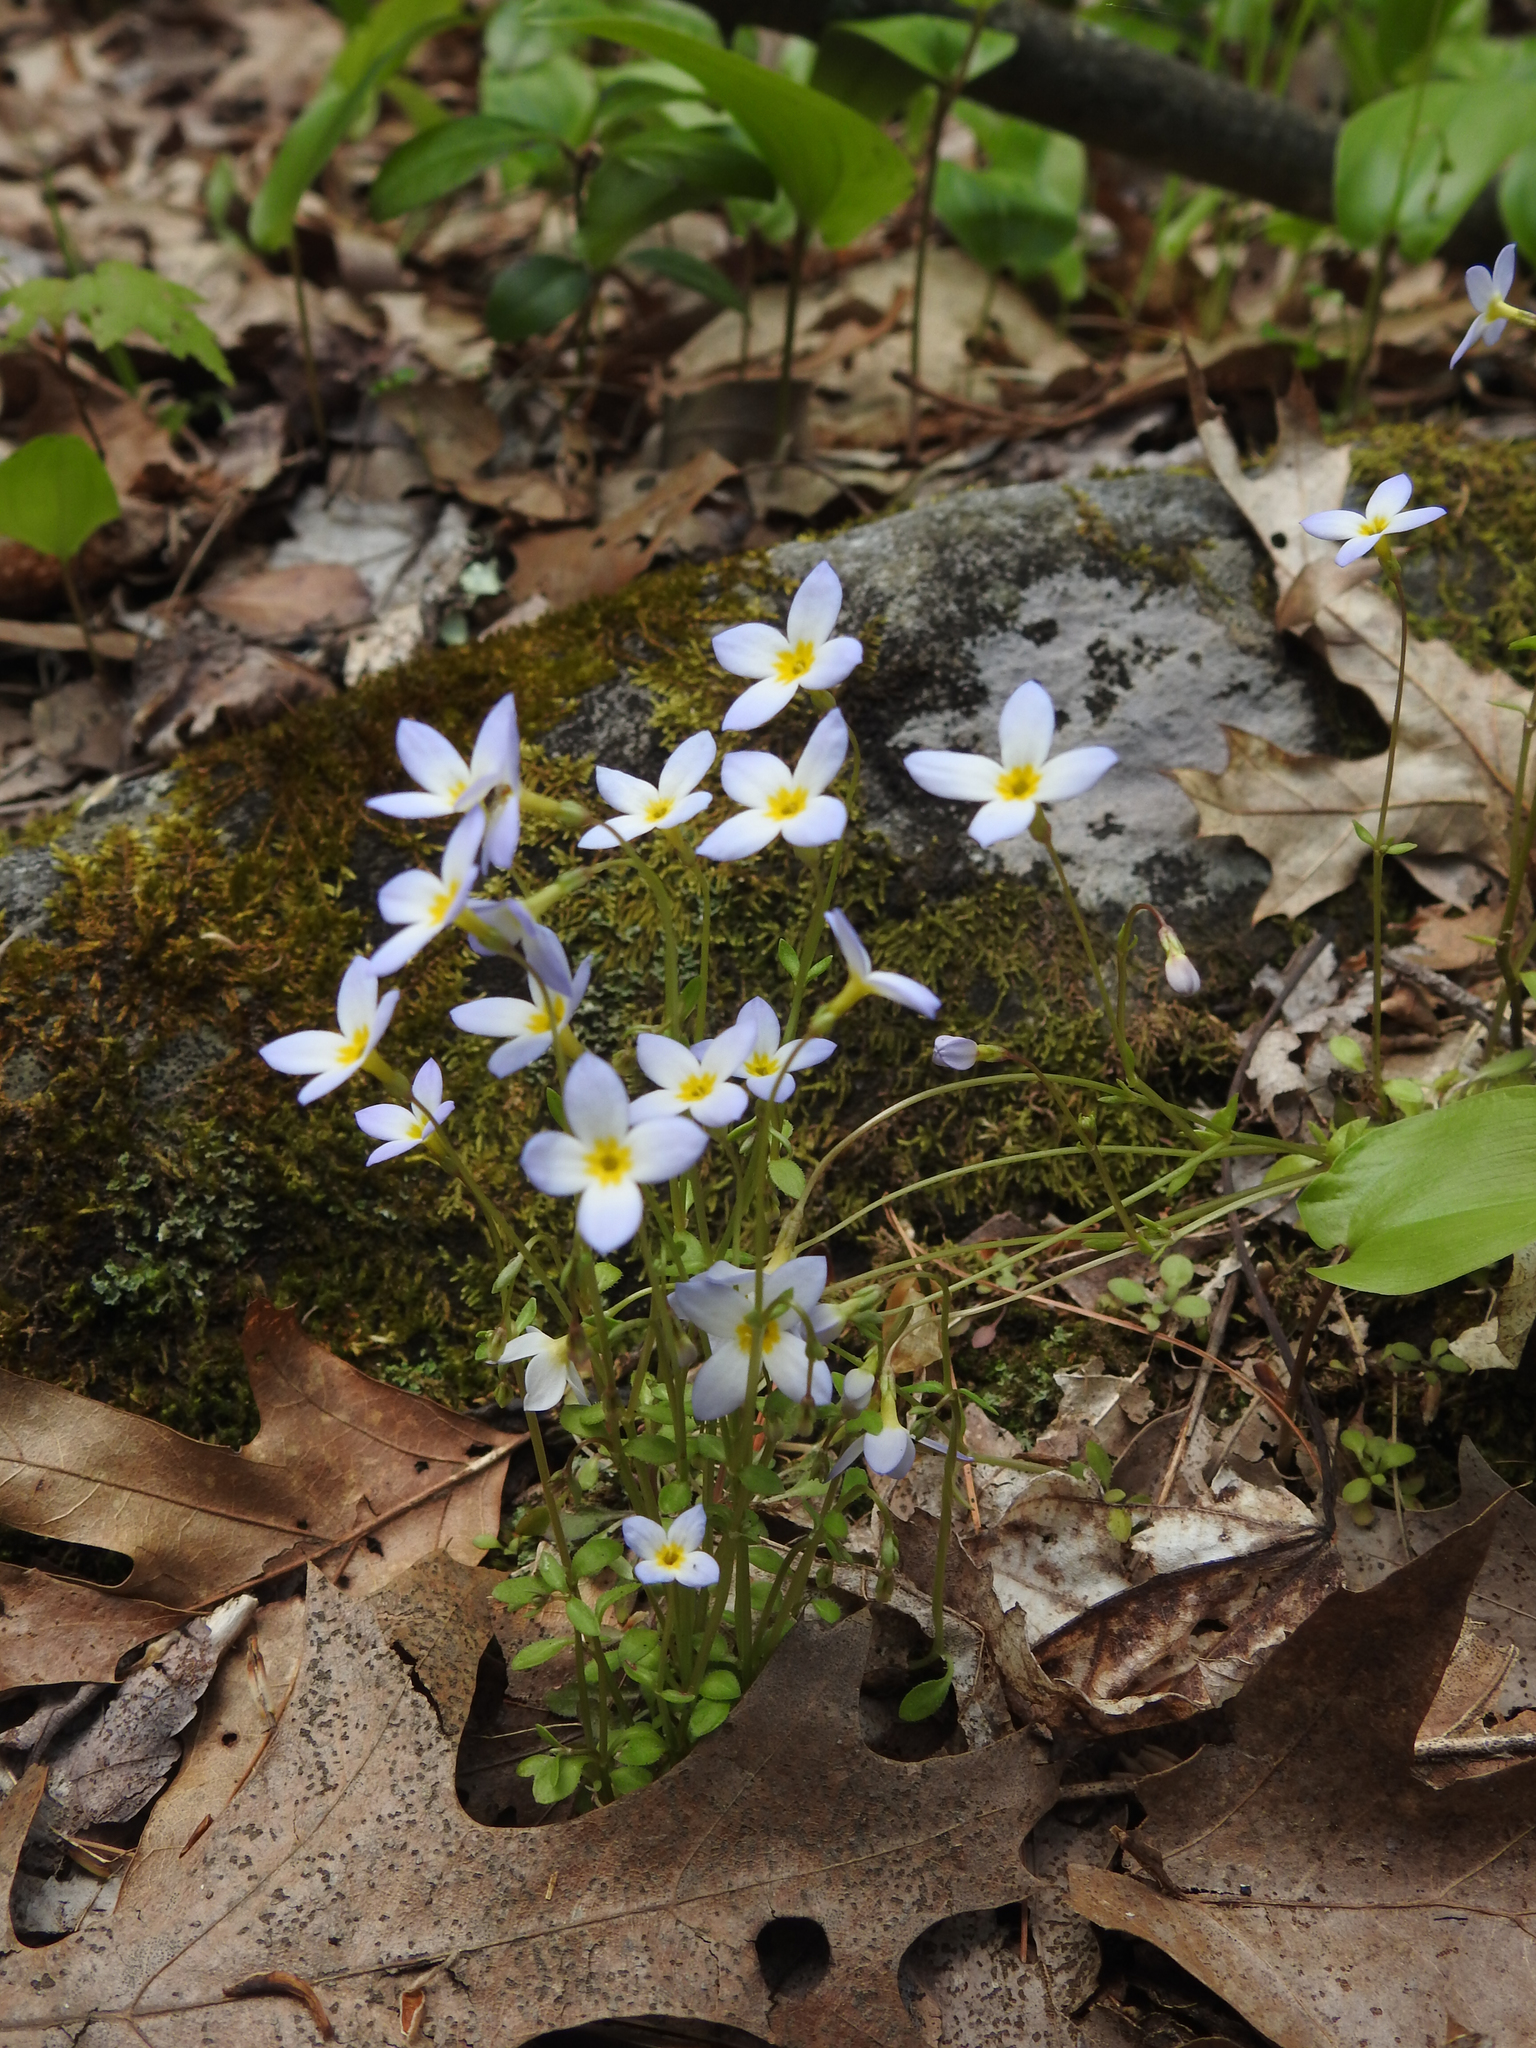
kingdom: Plantae
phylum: Tracheophyta
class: Magnoliopsida
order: Gentianales
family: Rubiaceae
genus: Houstonia
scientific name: Houstonia caerulea
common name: Bluets
